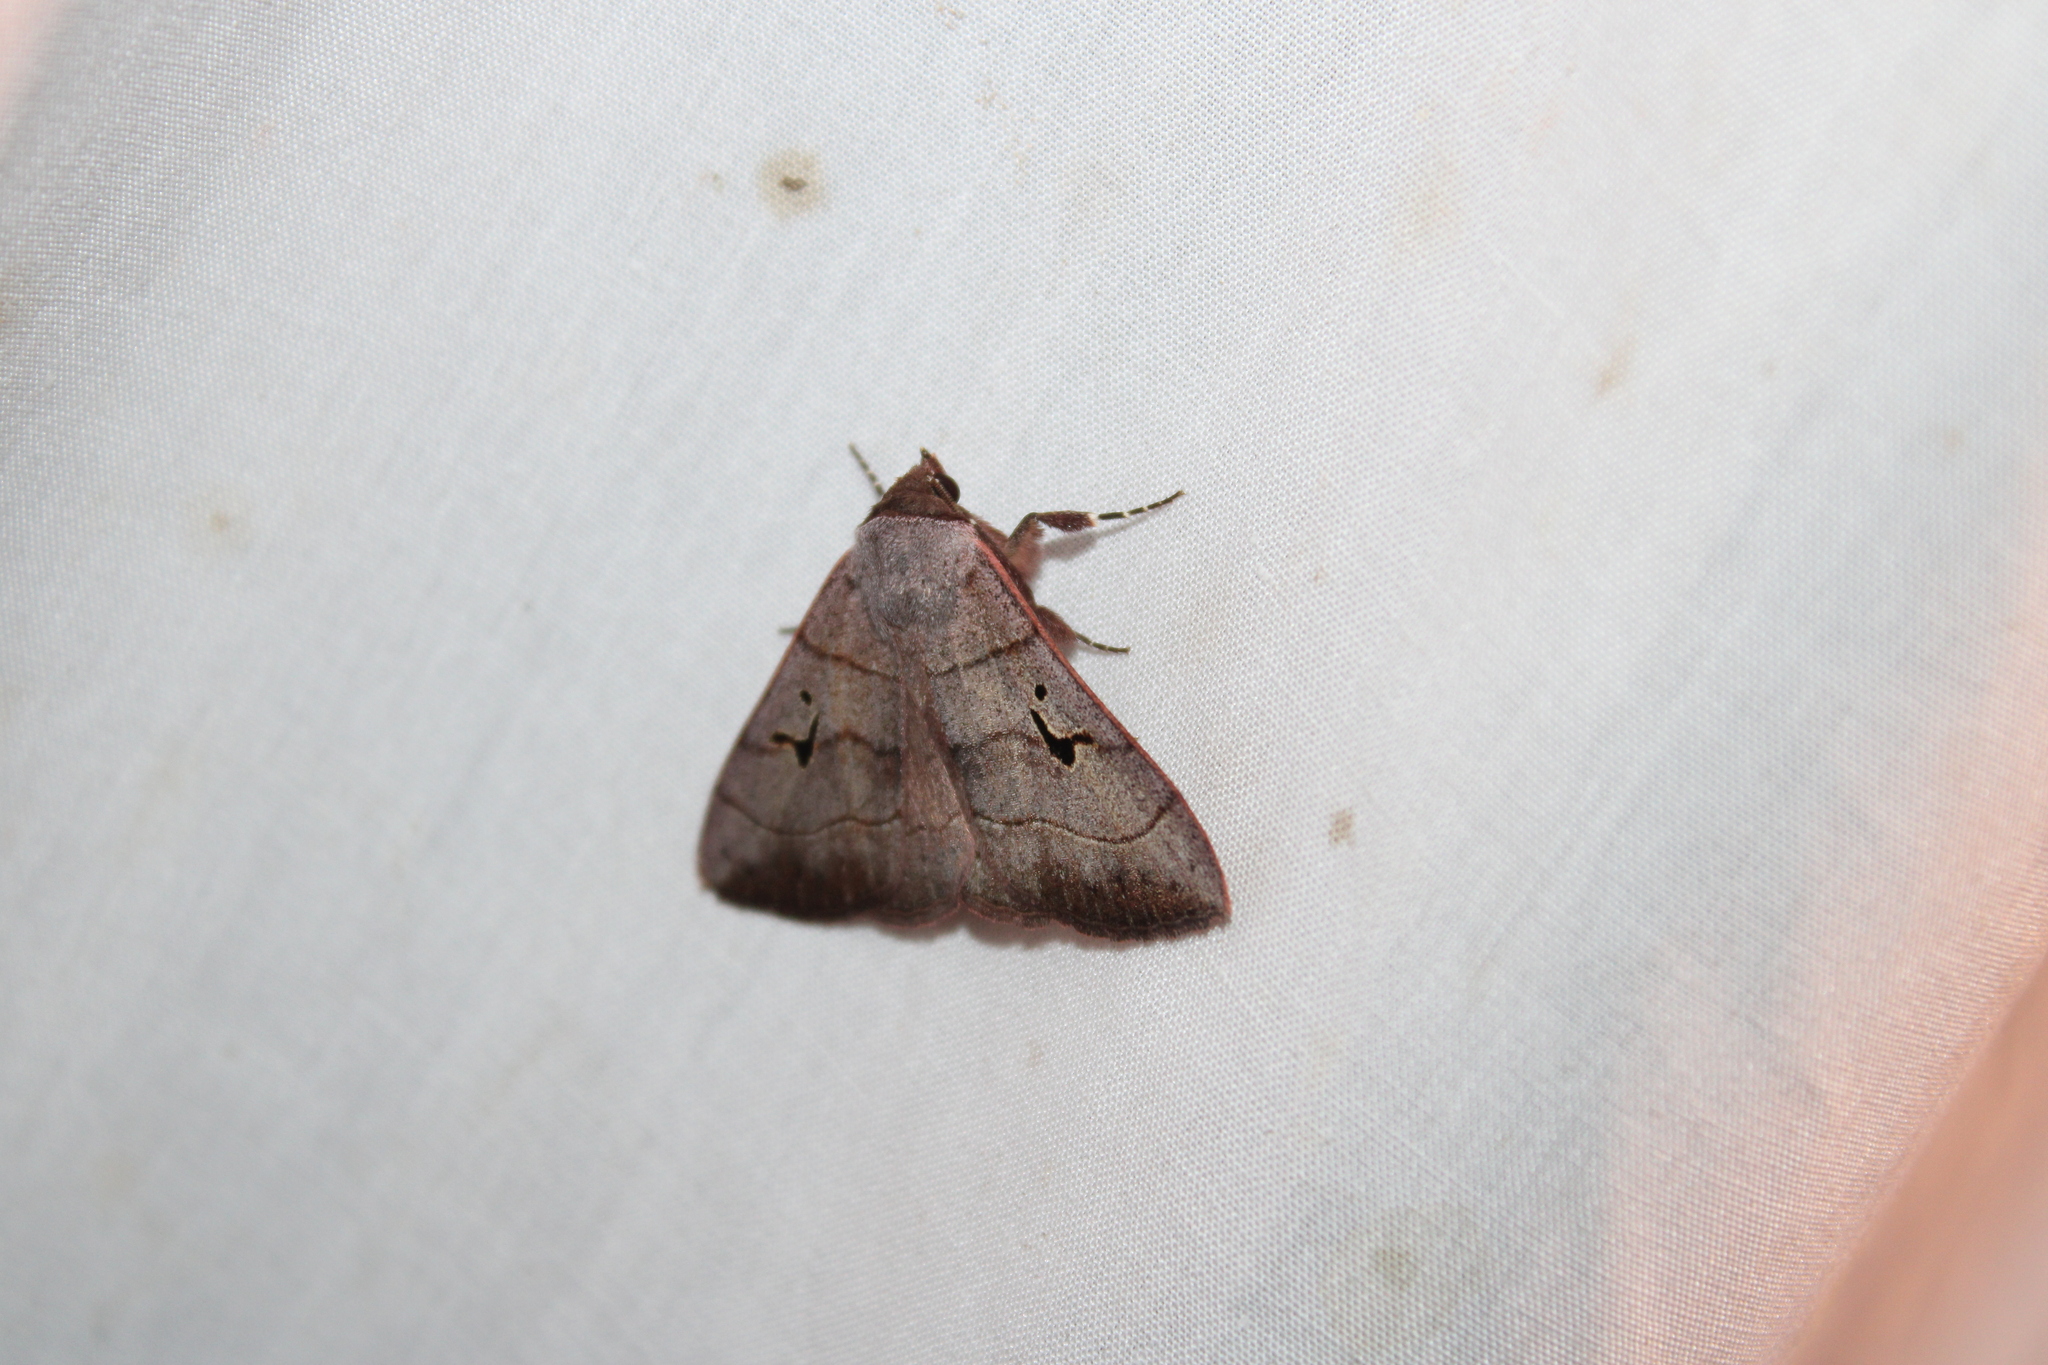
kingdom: Animalia
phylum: Arthropoda
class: Insecta
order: Lepidoptera
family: Erebidae
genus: Panopoda
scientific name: Panopoda carneicosta
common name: Brown panopoda moth
